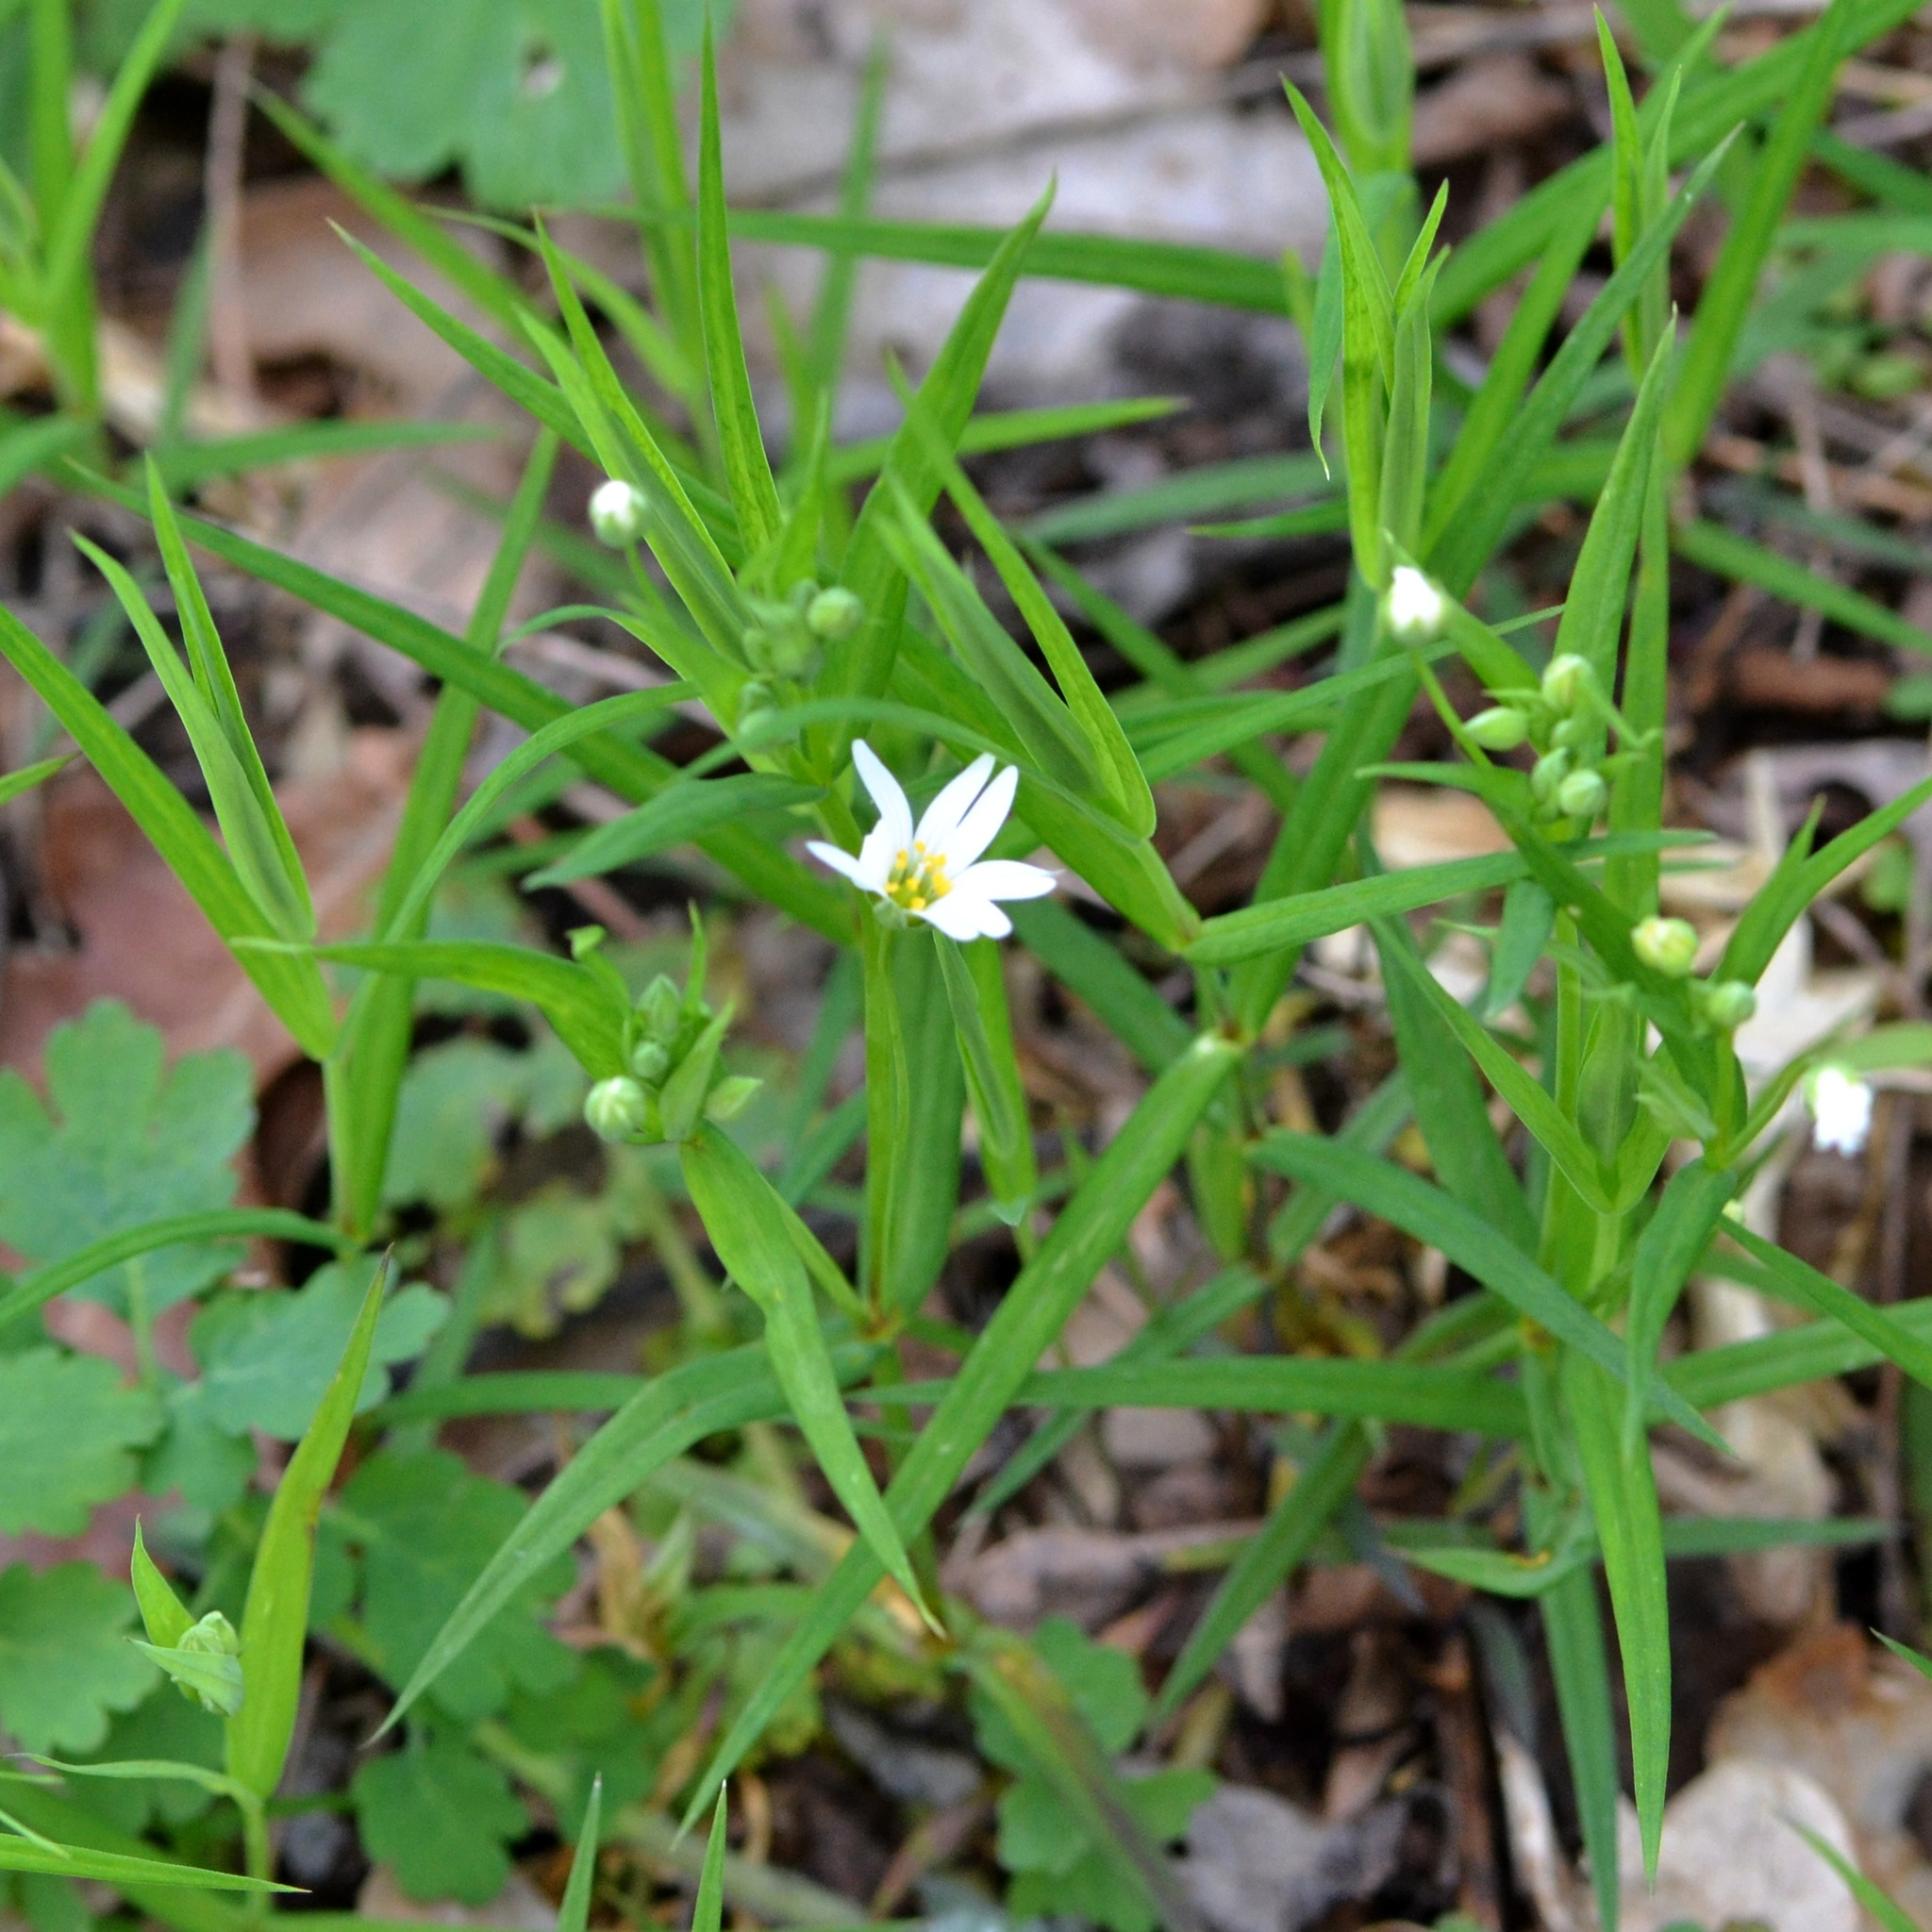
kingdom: Plantae
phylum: Tracheophyta
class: Magnoliopsida
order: Caryophyllales
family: Caryophyllaceae
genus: Rabelera
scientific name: Rabelera holostea
